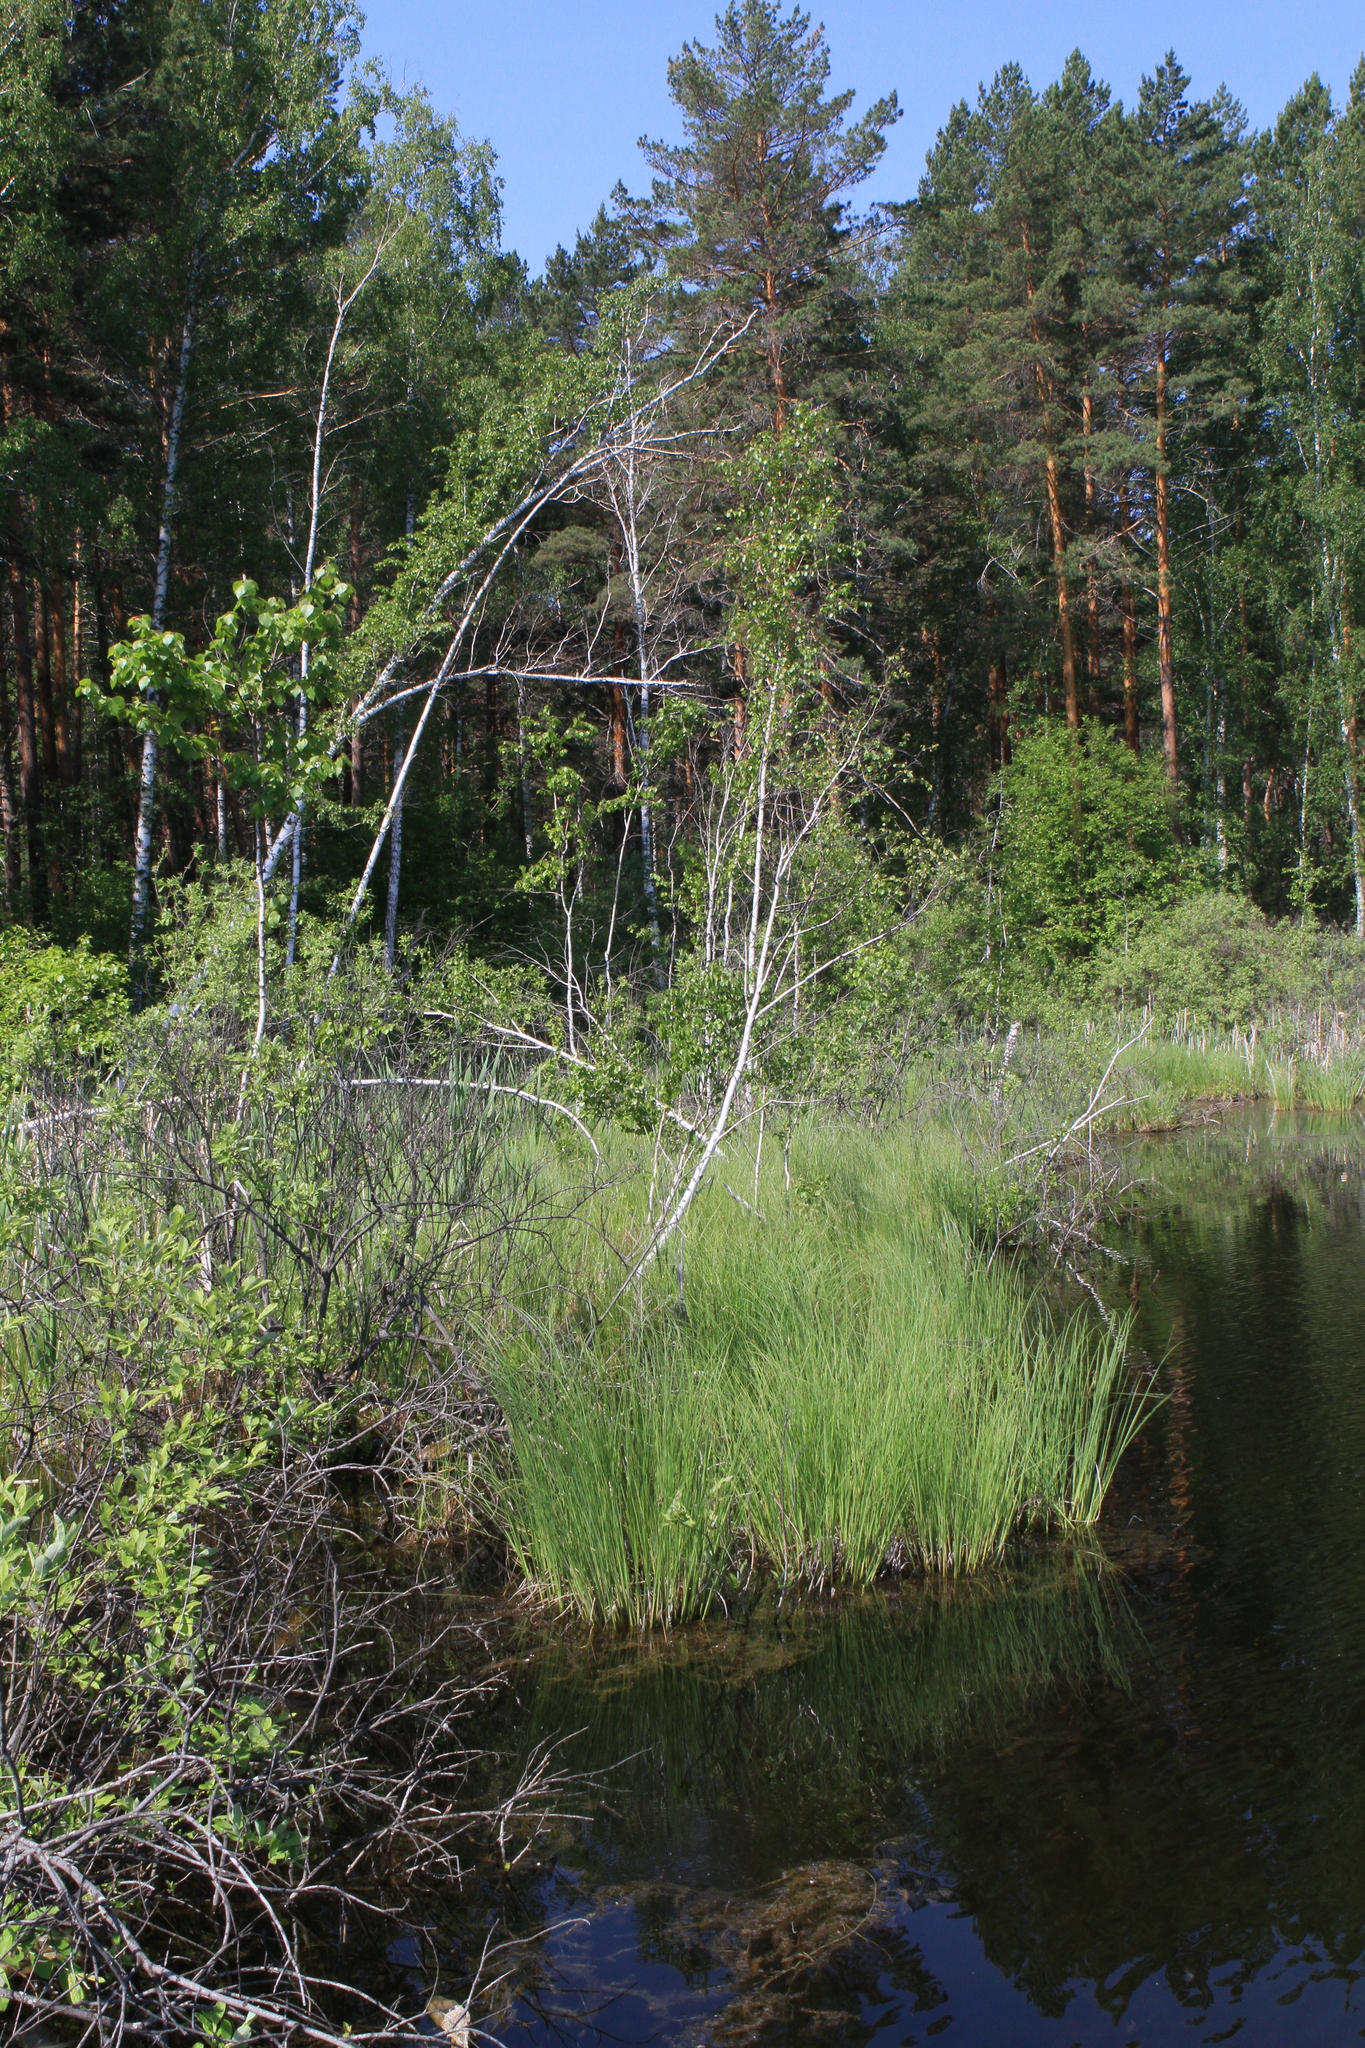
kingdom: Plantae
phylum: Tracheophyta
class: Pinopsida
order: Pinales
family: Pinaceae
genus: Pinus
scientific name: Pinus sylvestris
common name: Scots pine
